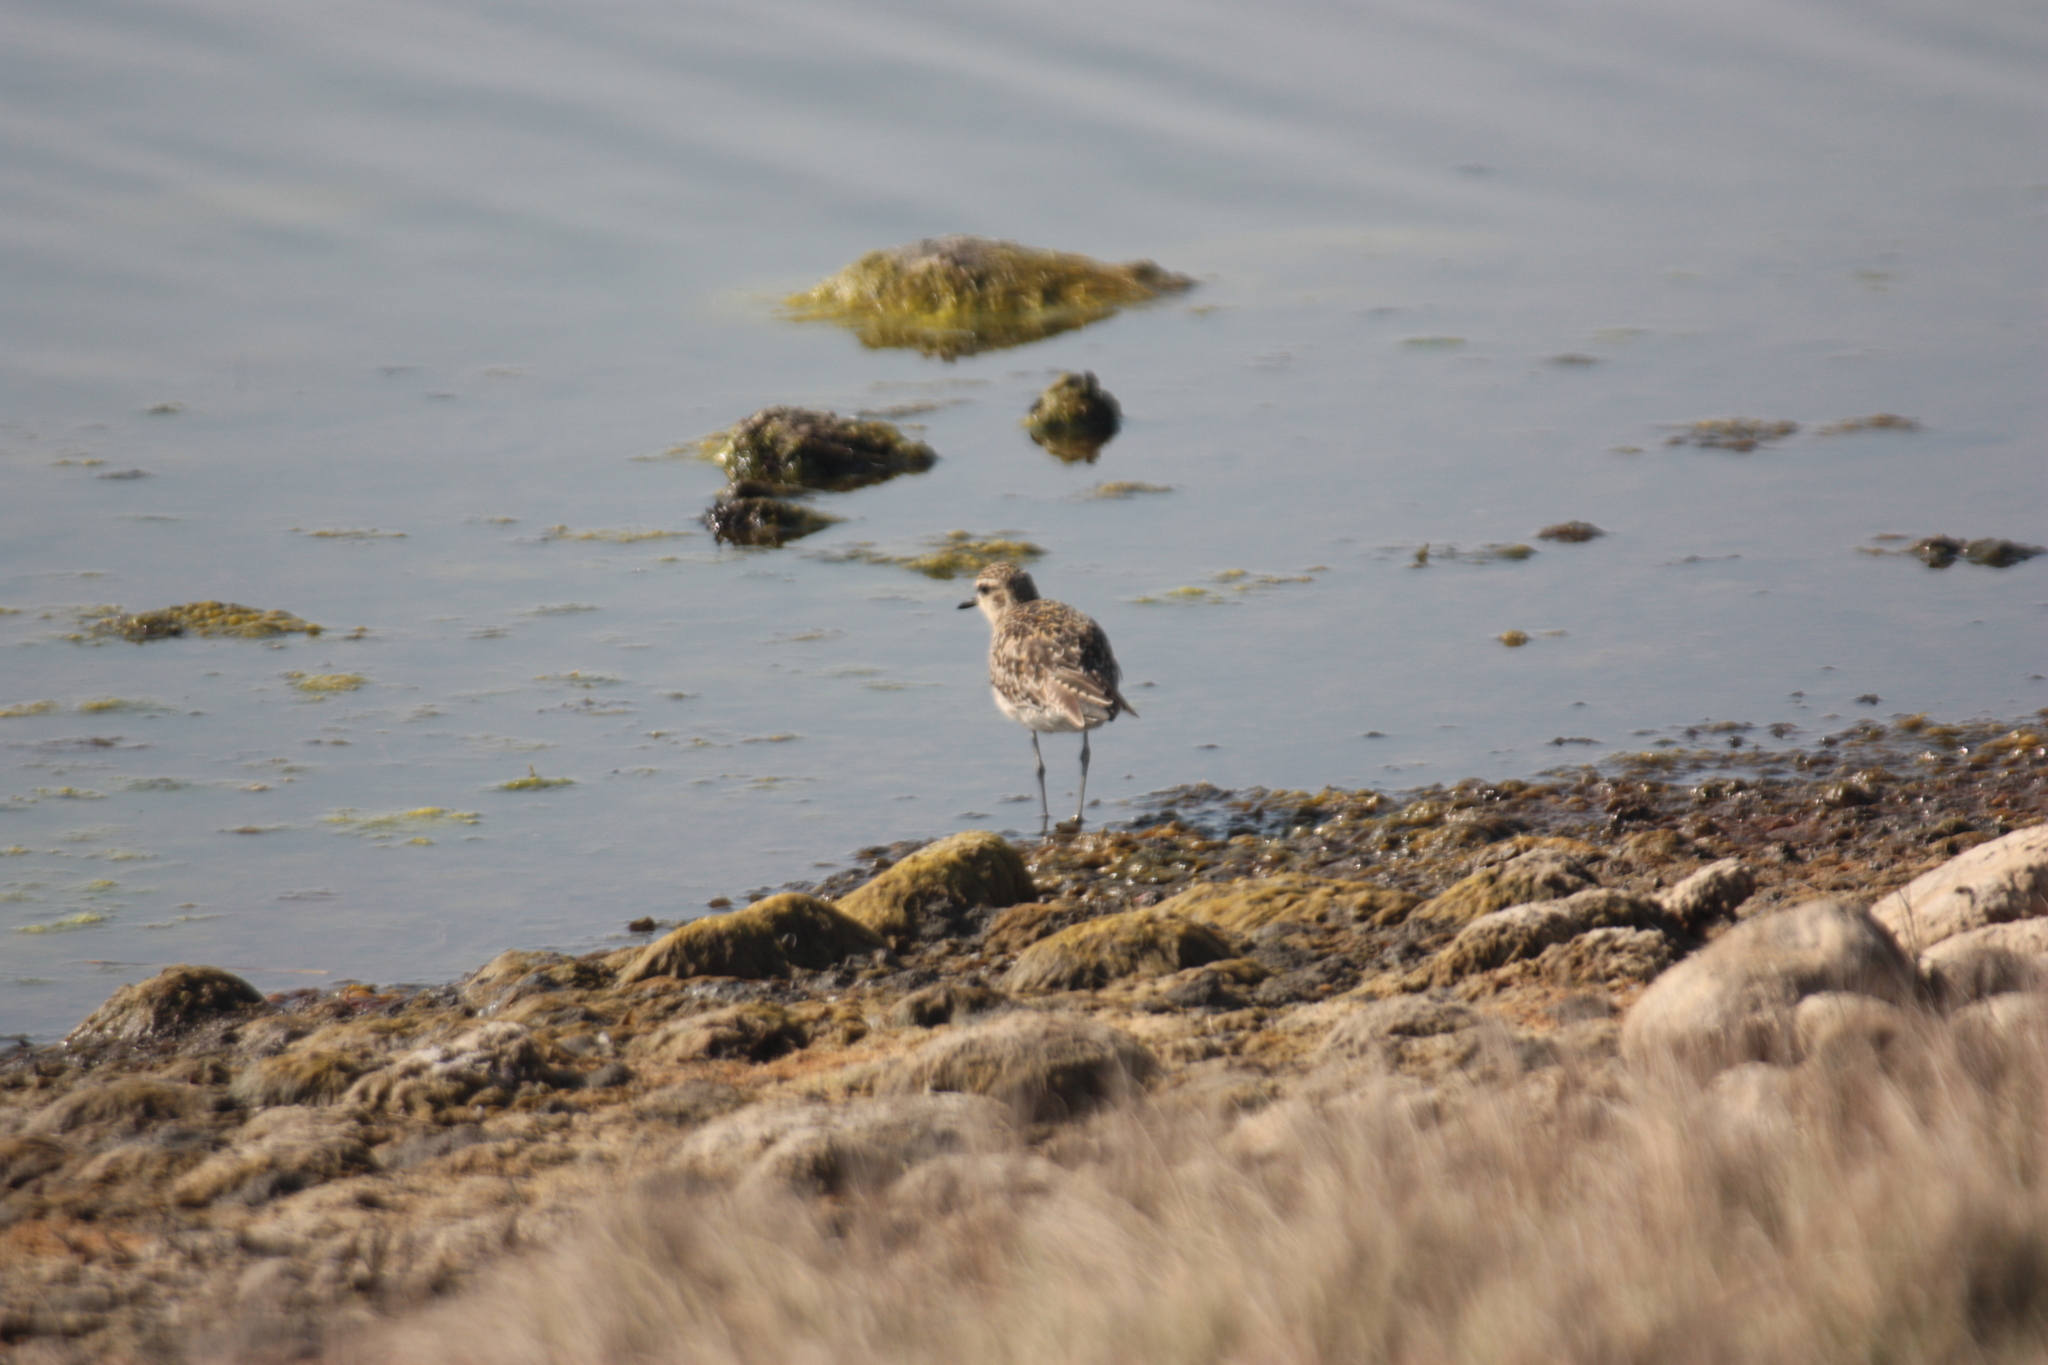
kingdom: Animalia
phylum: Chordata
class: Aves
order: Charadriiformes
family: Charadriidae
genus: Pluvialis
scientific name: Pluvialis fulva
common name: Pacific golden plover
